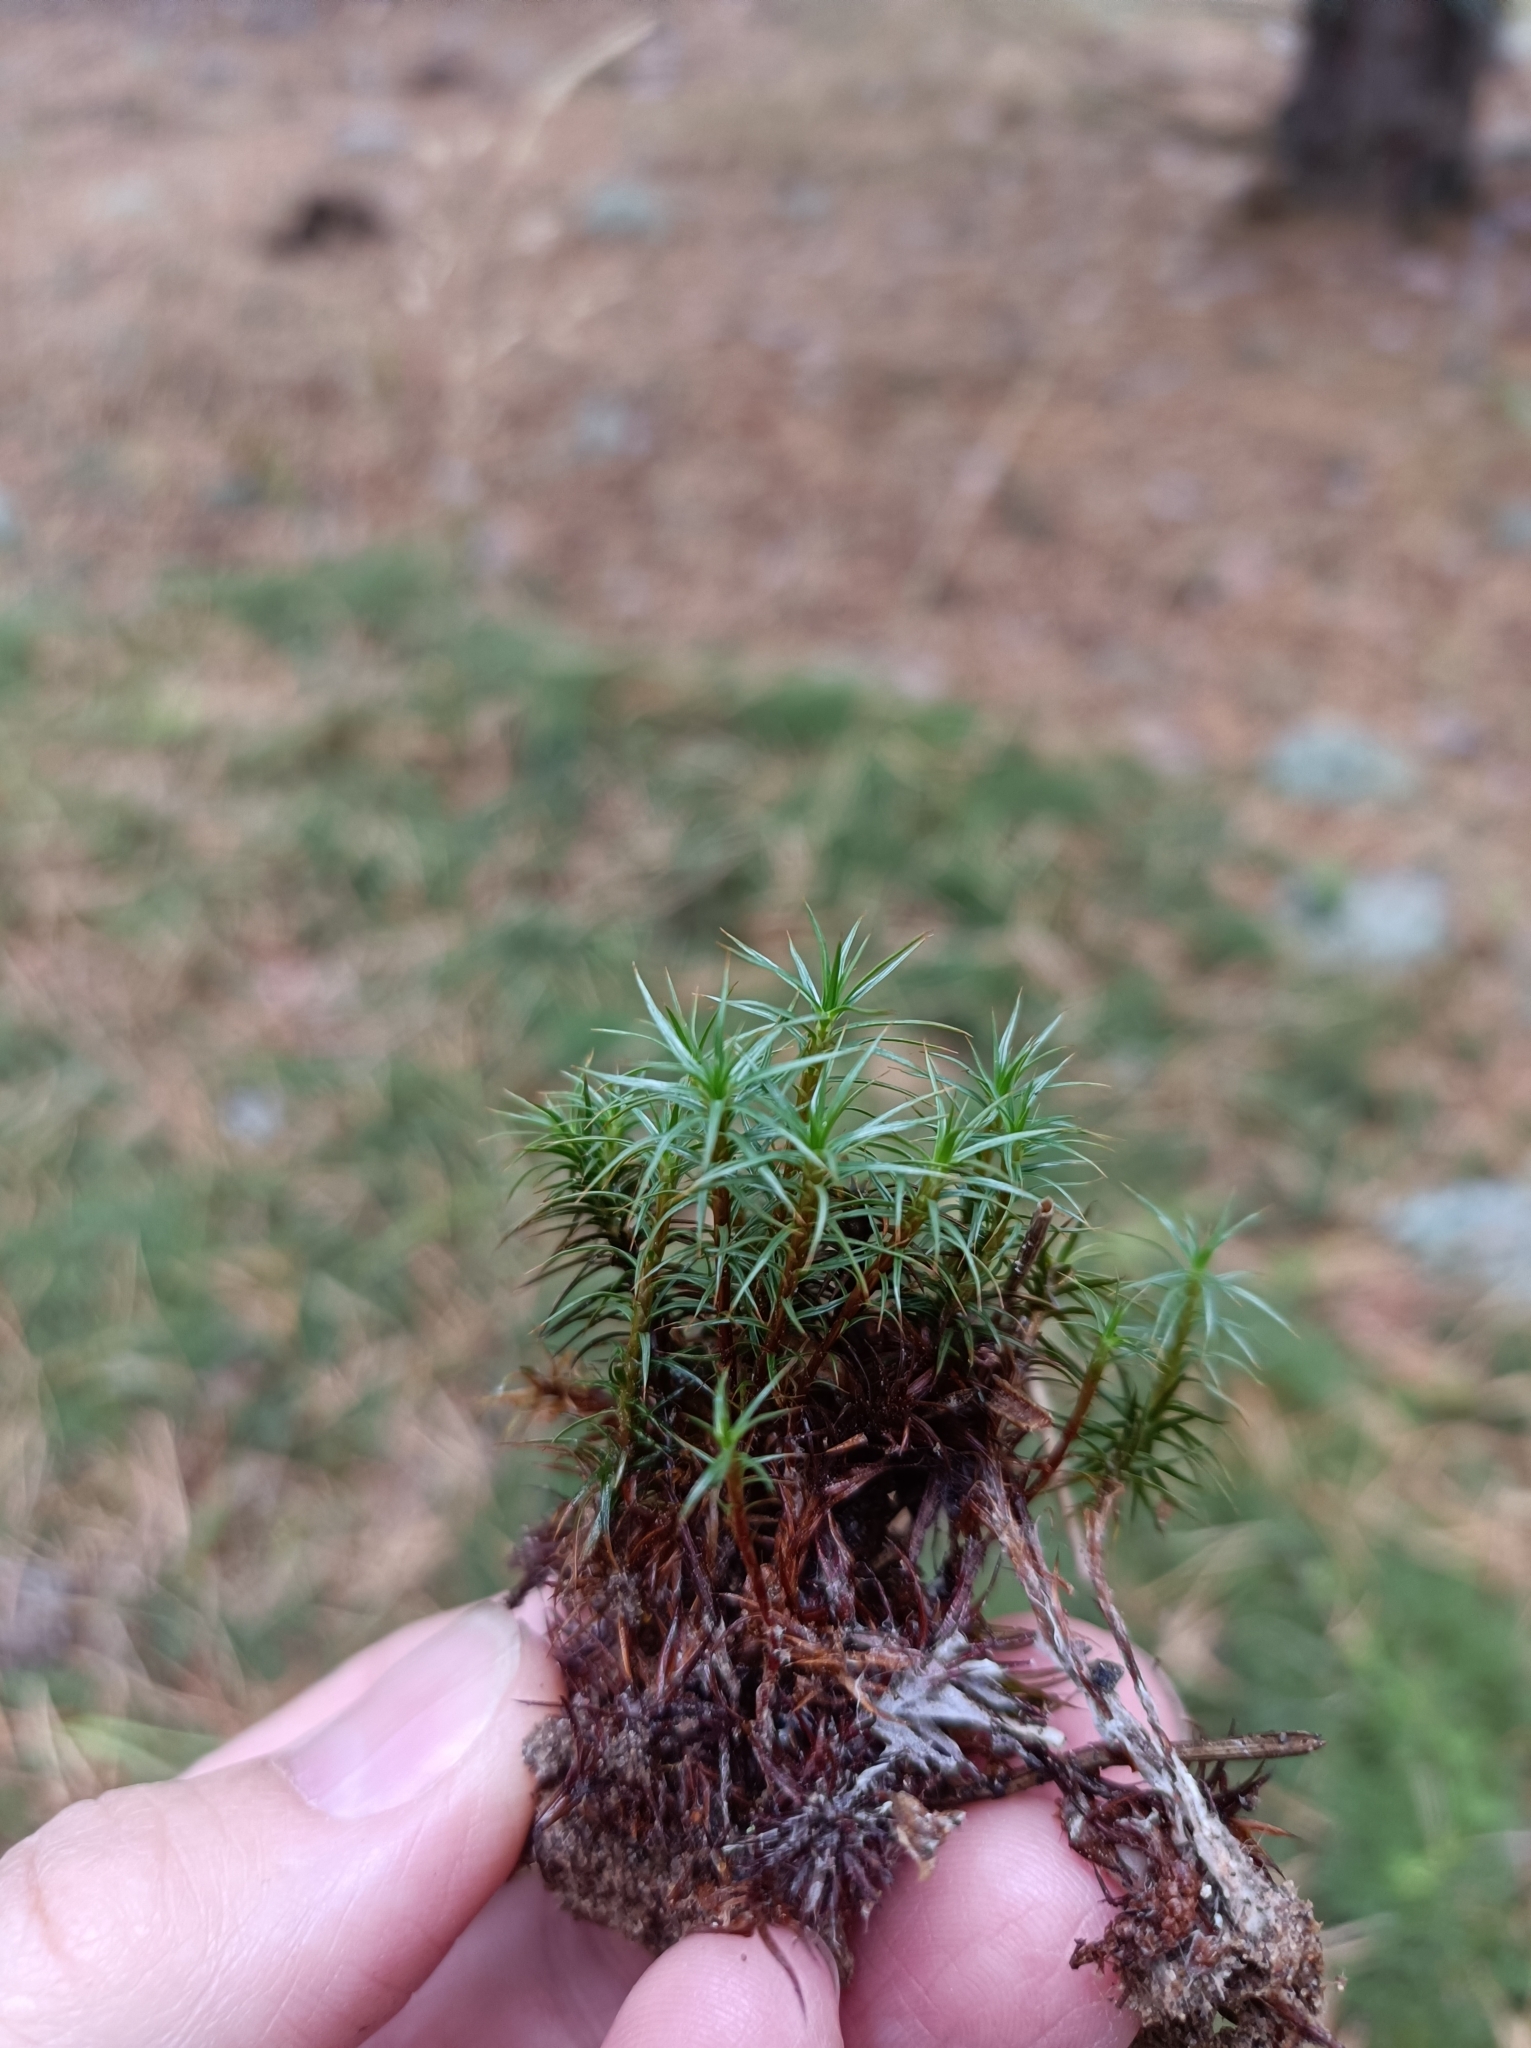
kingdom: Plantae
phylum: Bryophyta
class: Polytrichopsida
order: Polytrichales
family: Polytrichaceae
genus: Polytrichum
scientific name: Polytrichum juniperinum
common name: Juniper haircap moss
